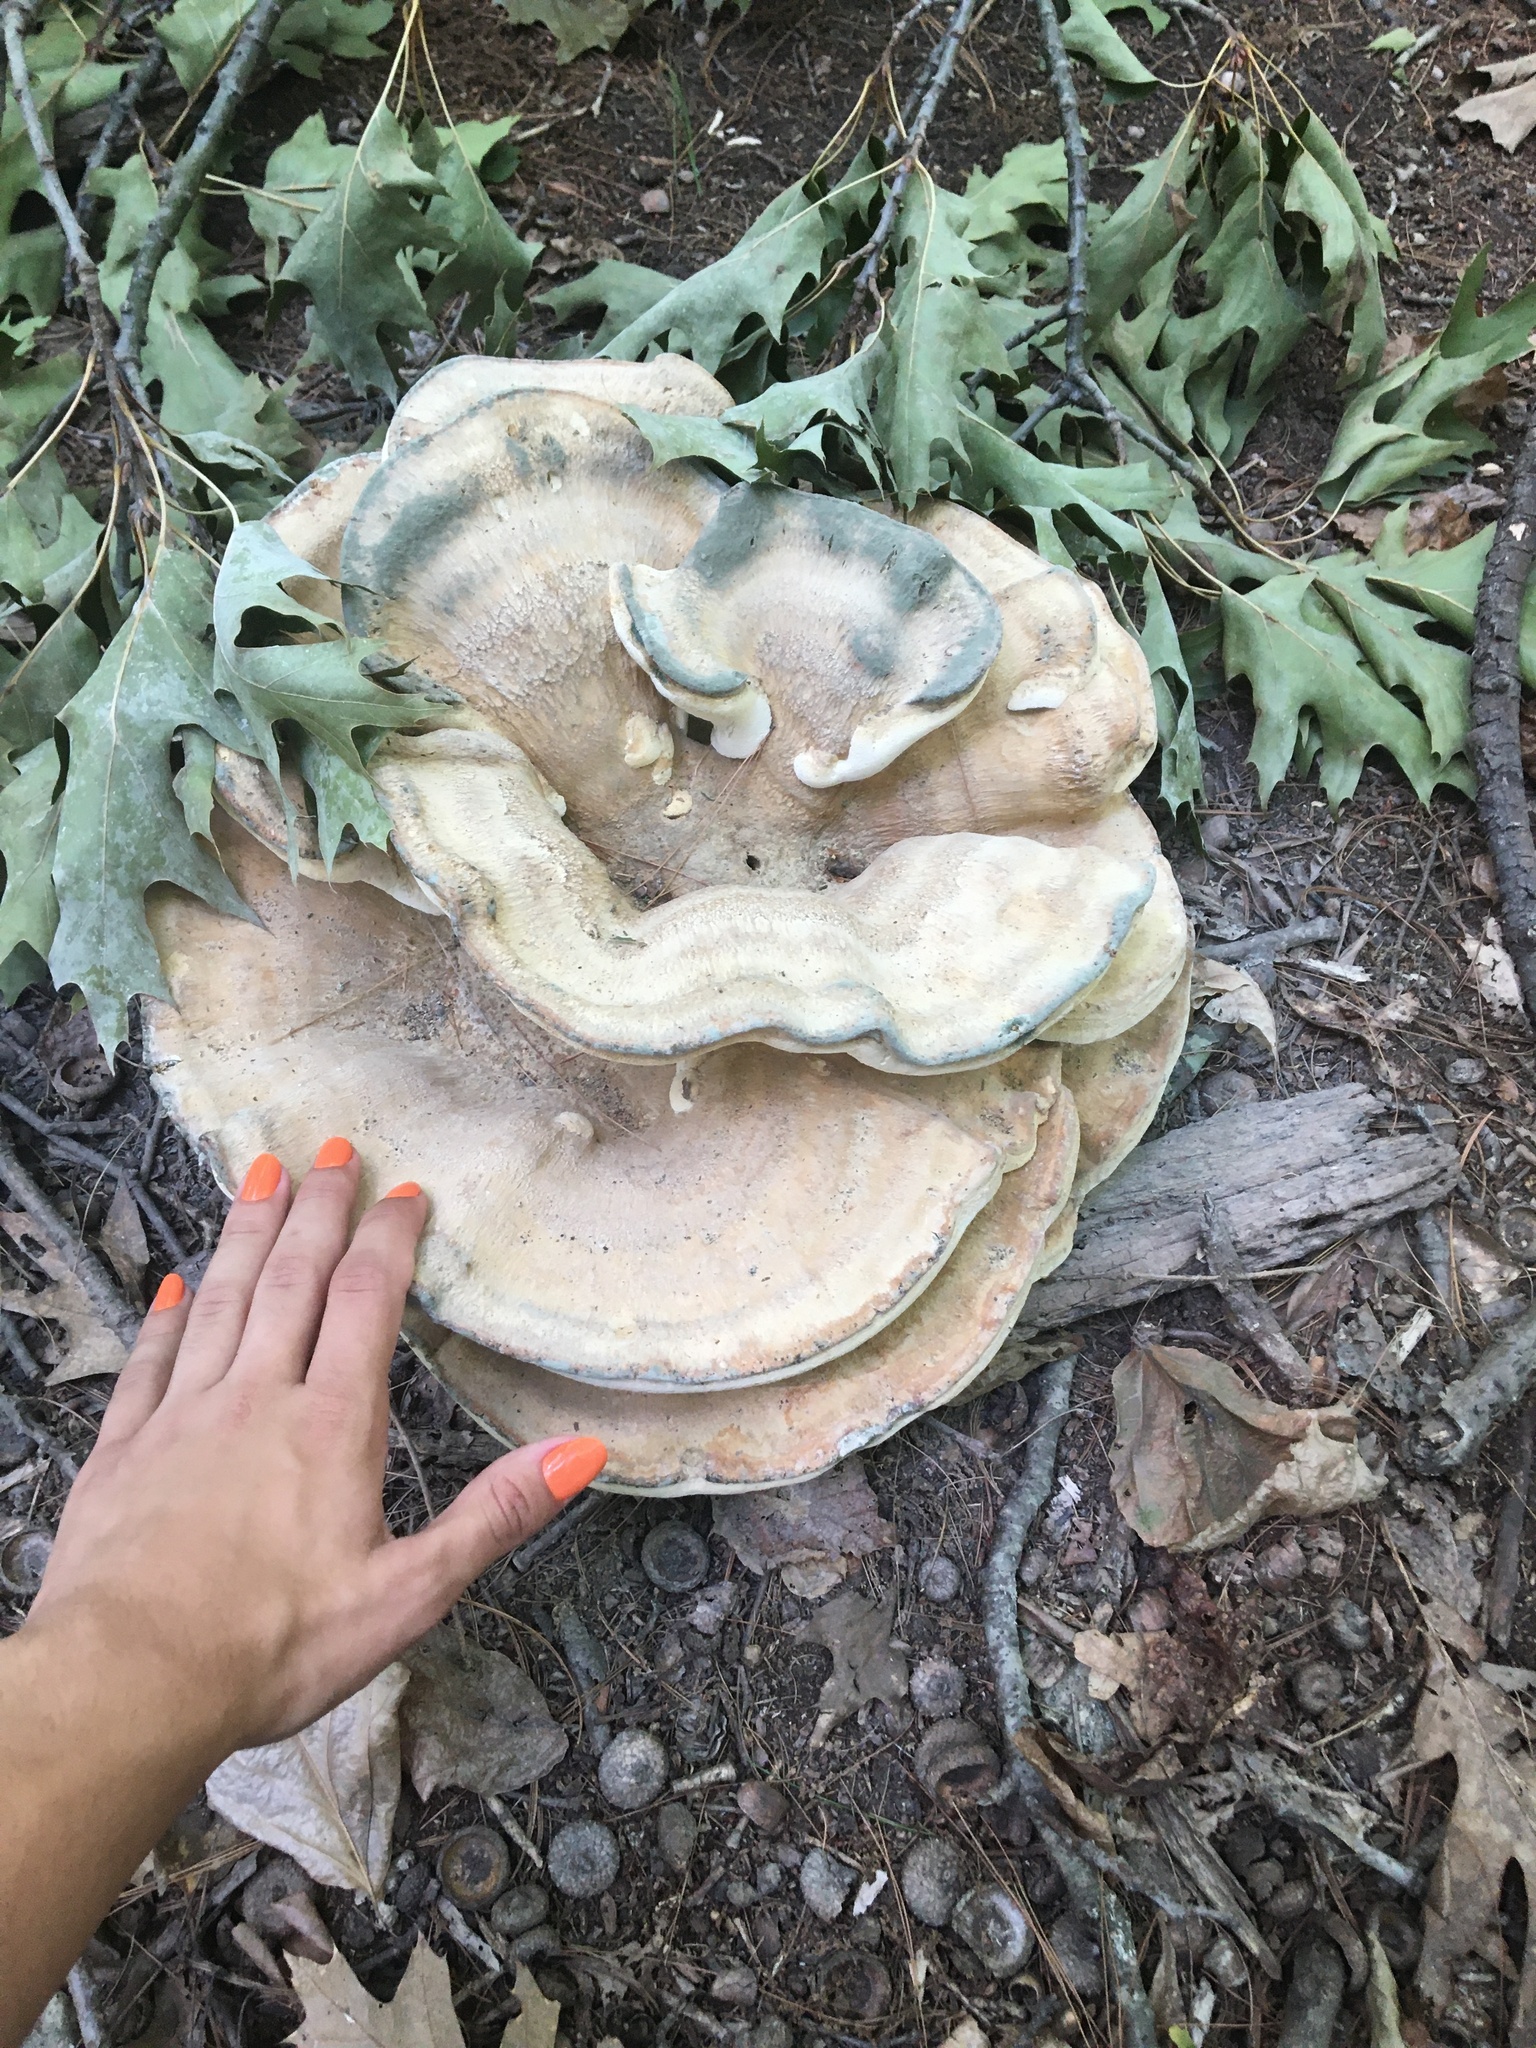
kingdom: Fungi
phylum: Basidiomycota
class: Agaricomycetes
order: Russulales
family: Bondarzewiaceae
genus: Bondarzewia
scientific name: Bondarzewia berkeleyi
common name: Berkeley's polypore
